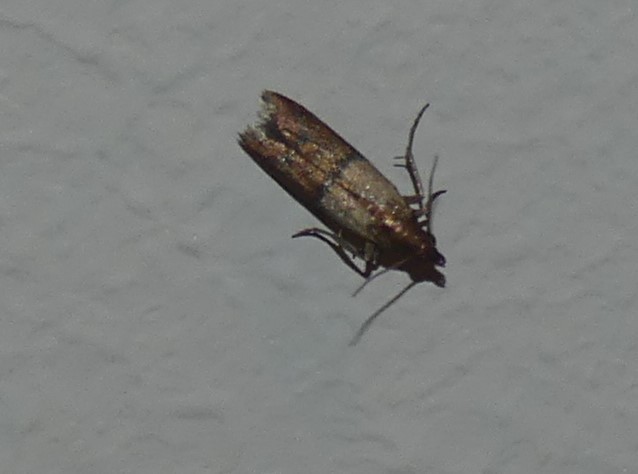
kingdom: Animalia
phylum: Arthropoda
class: Insecta
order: Lepidoptera
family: Pyralidae
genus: Plodia
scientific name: Plodia interpunctella
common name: Indian meal moth
